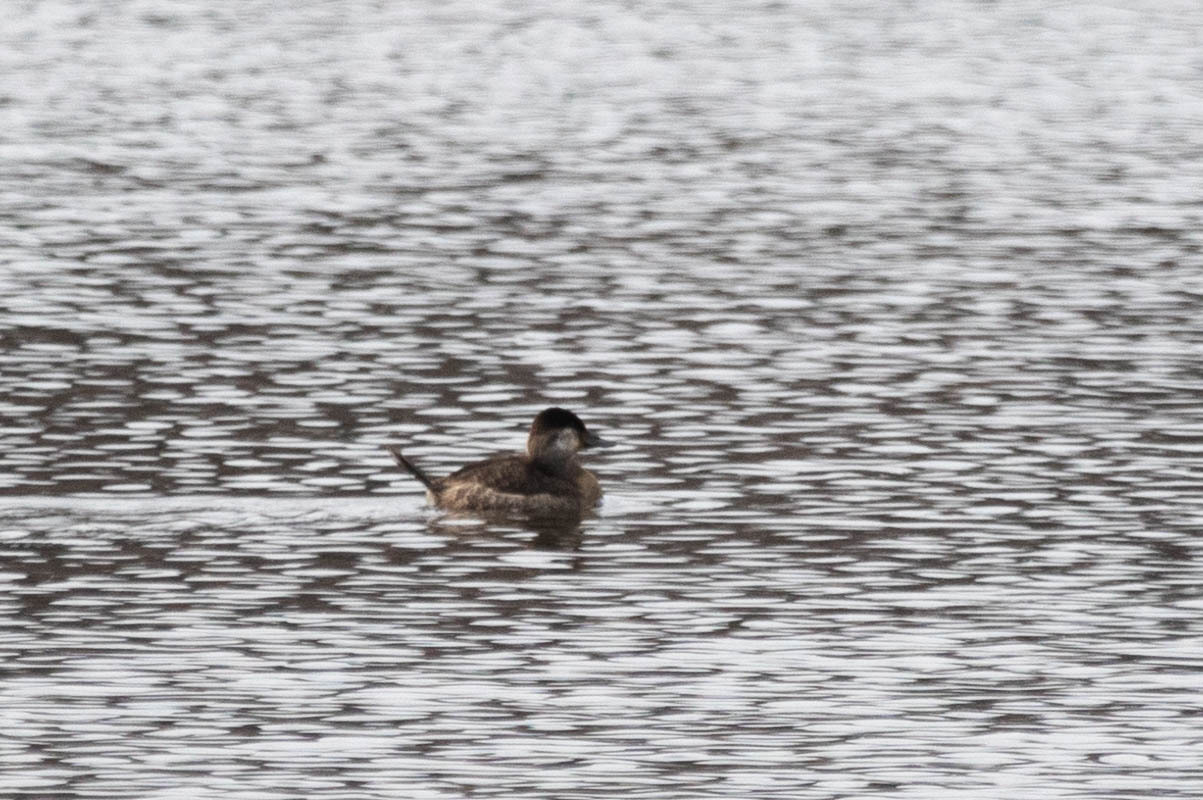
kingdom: Animalia
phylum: Chordata
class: Aves
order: Anseriformes
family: Anatidae
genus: Oxyura
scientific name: Oxyura jamaicensis
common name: Ruddy duck
